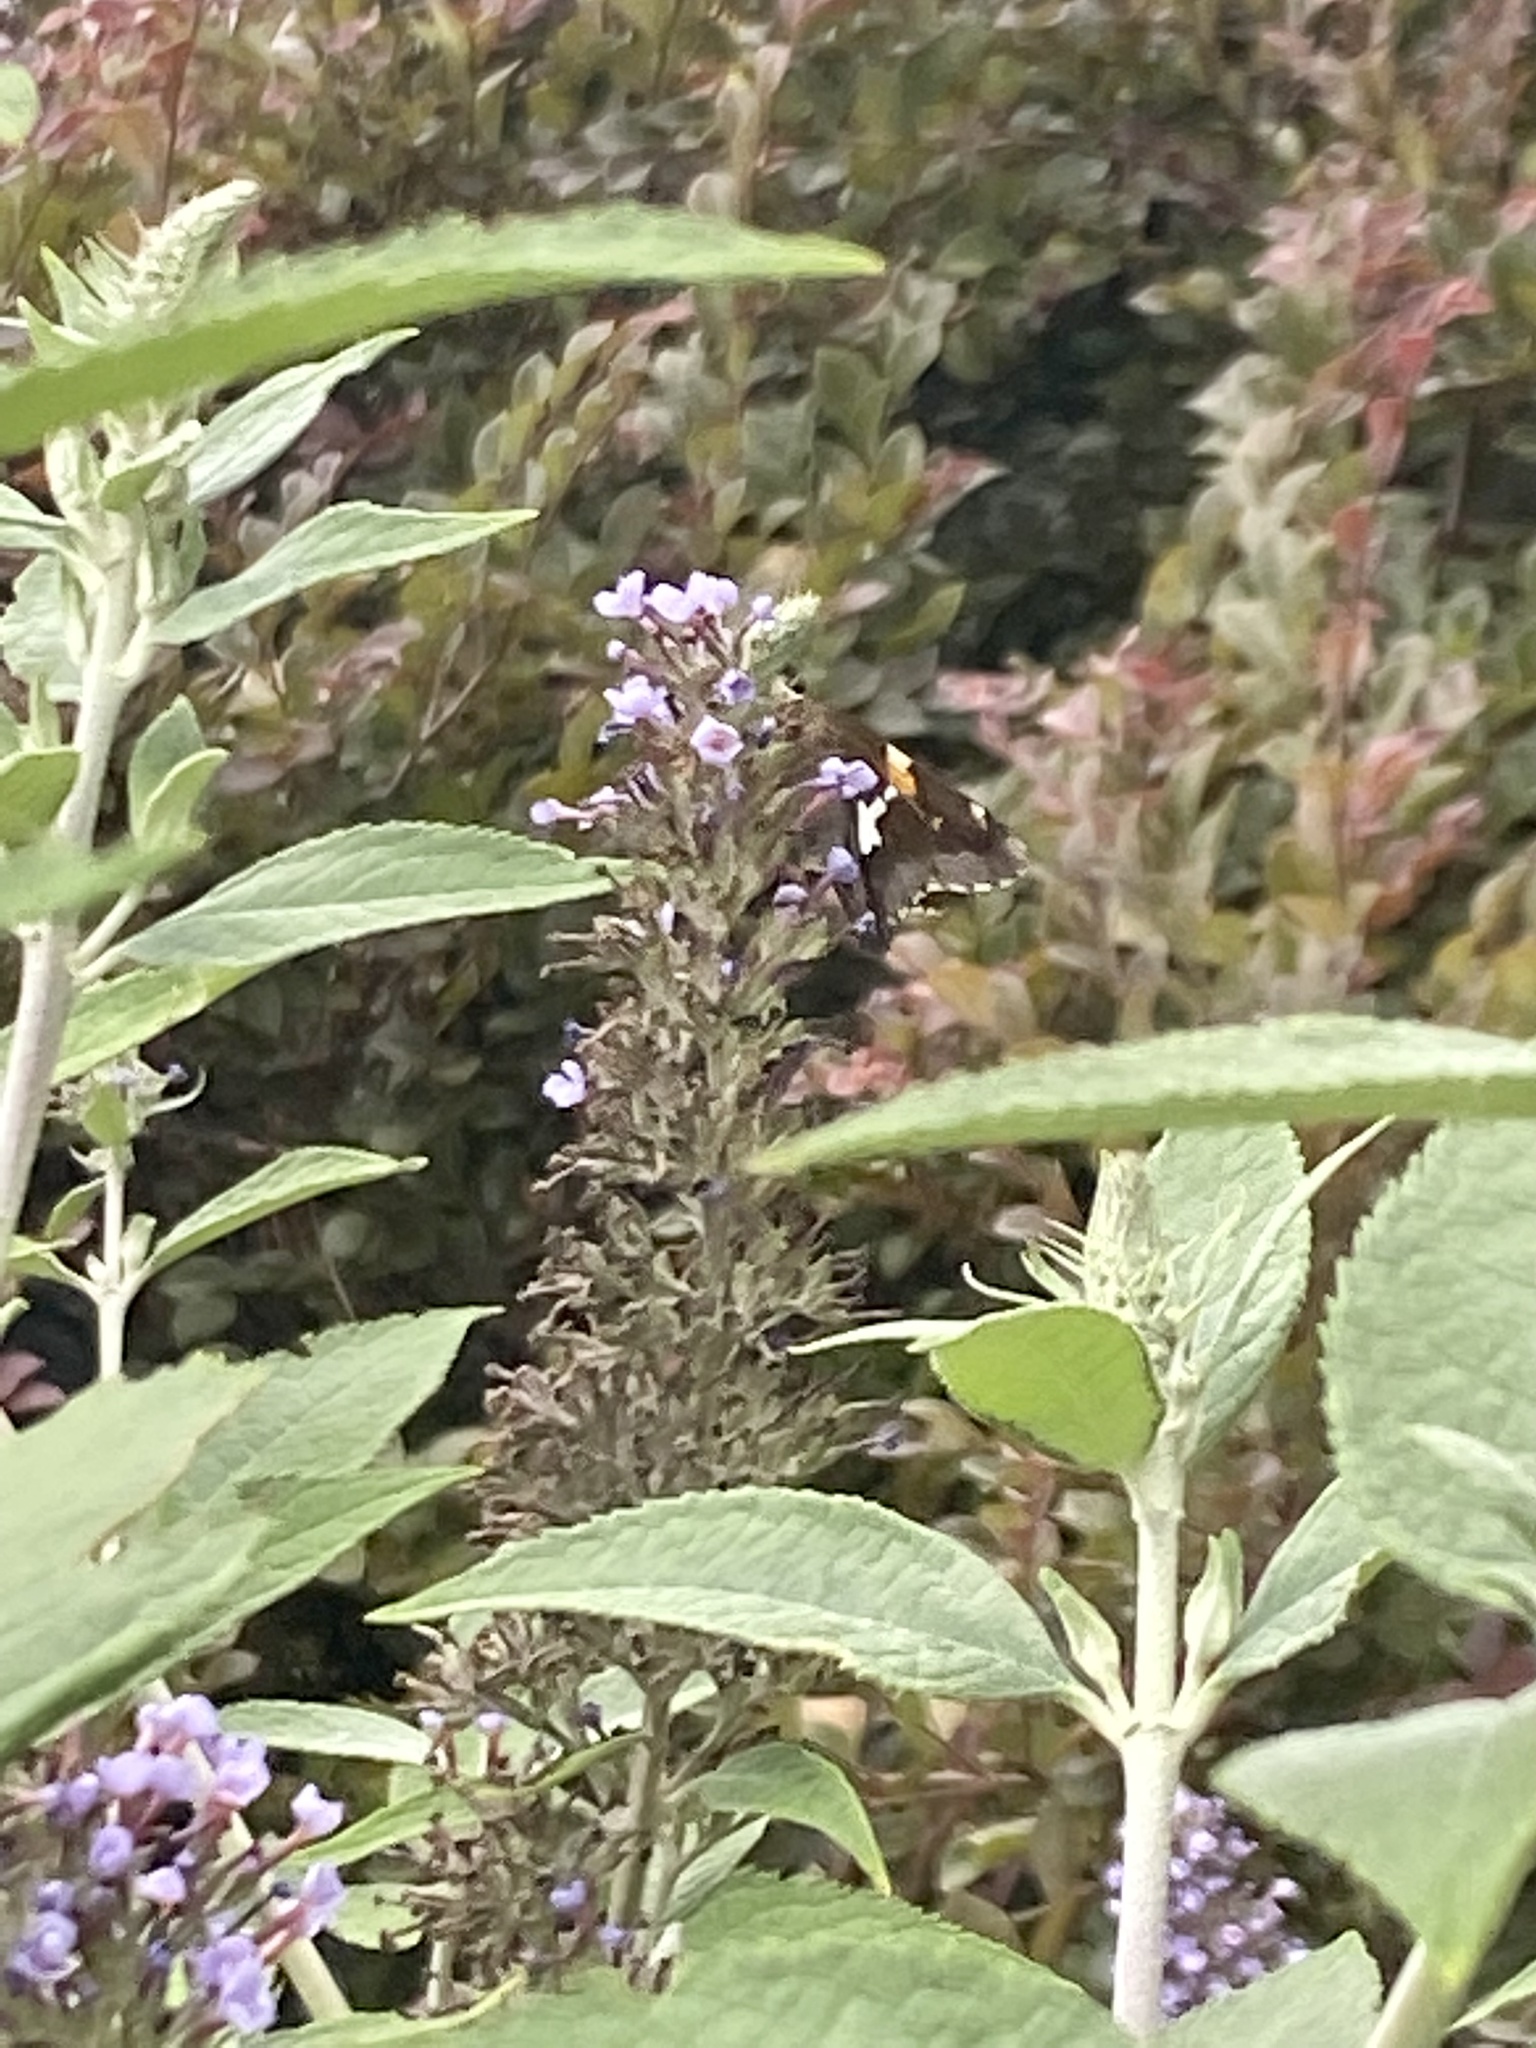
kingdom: Animalia
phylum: Arthropoda
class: Insecta
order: Lepidoptera
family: Hesperiidae
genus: Epargyreus
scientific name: Epargyreus clarus
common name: Silver-spotted skipper
